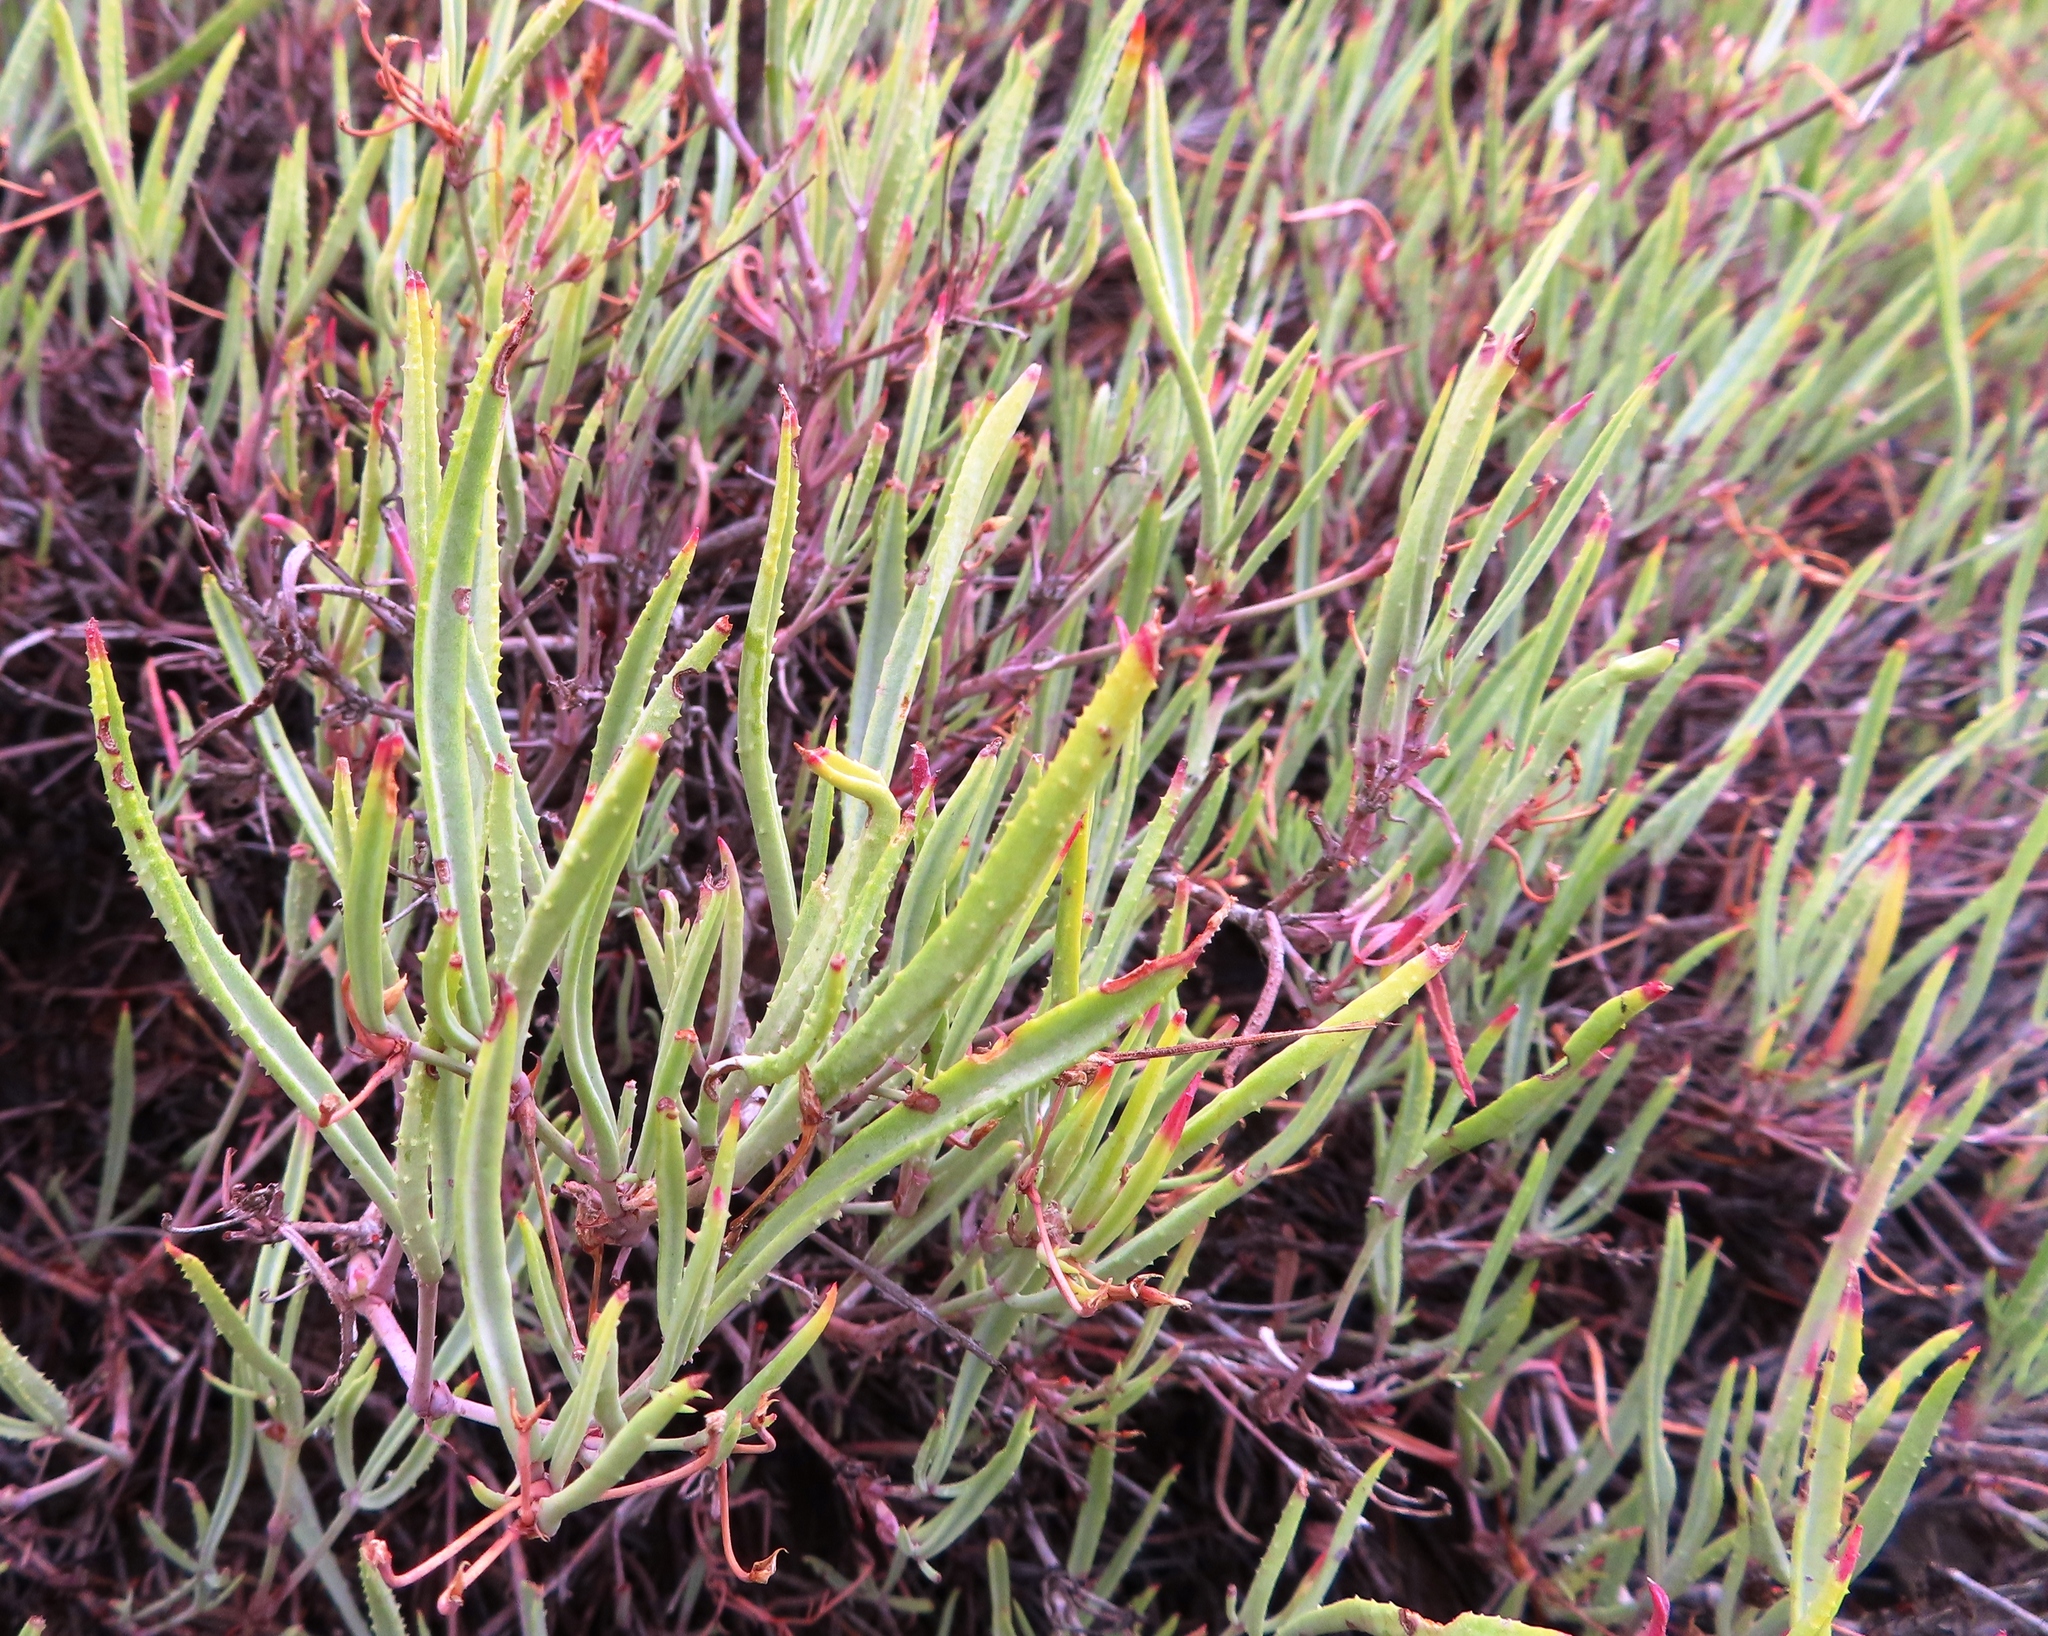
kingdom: Plantae
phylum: Tracheophyta
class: Magnoliopsida
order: Geraniales
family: Geraniaceae
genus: Pelargonium
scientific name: Pelargonium laevigatum
